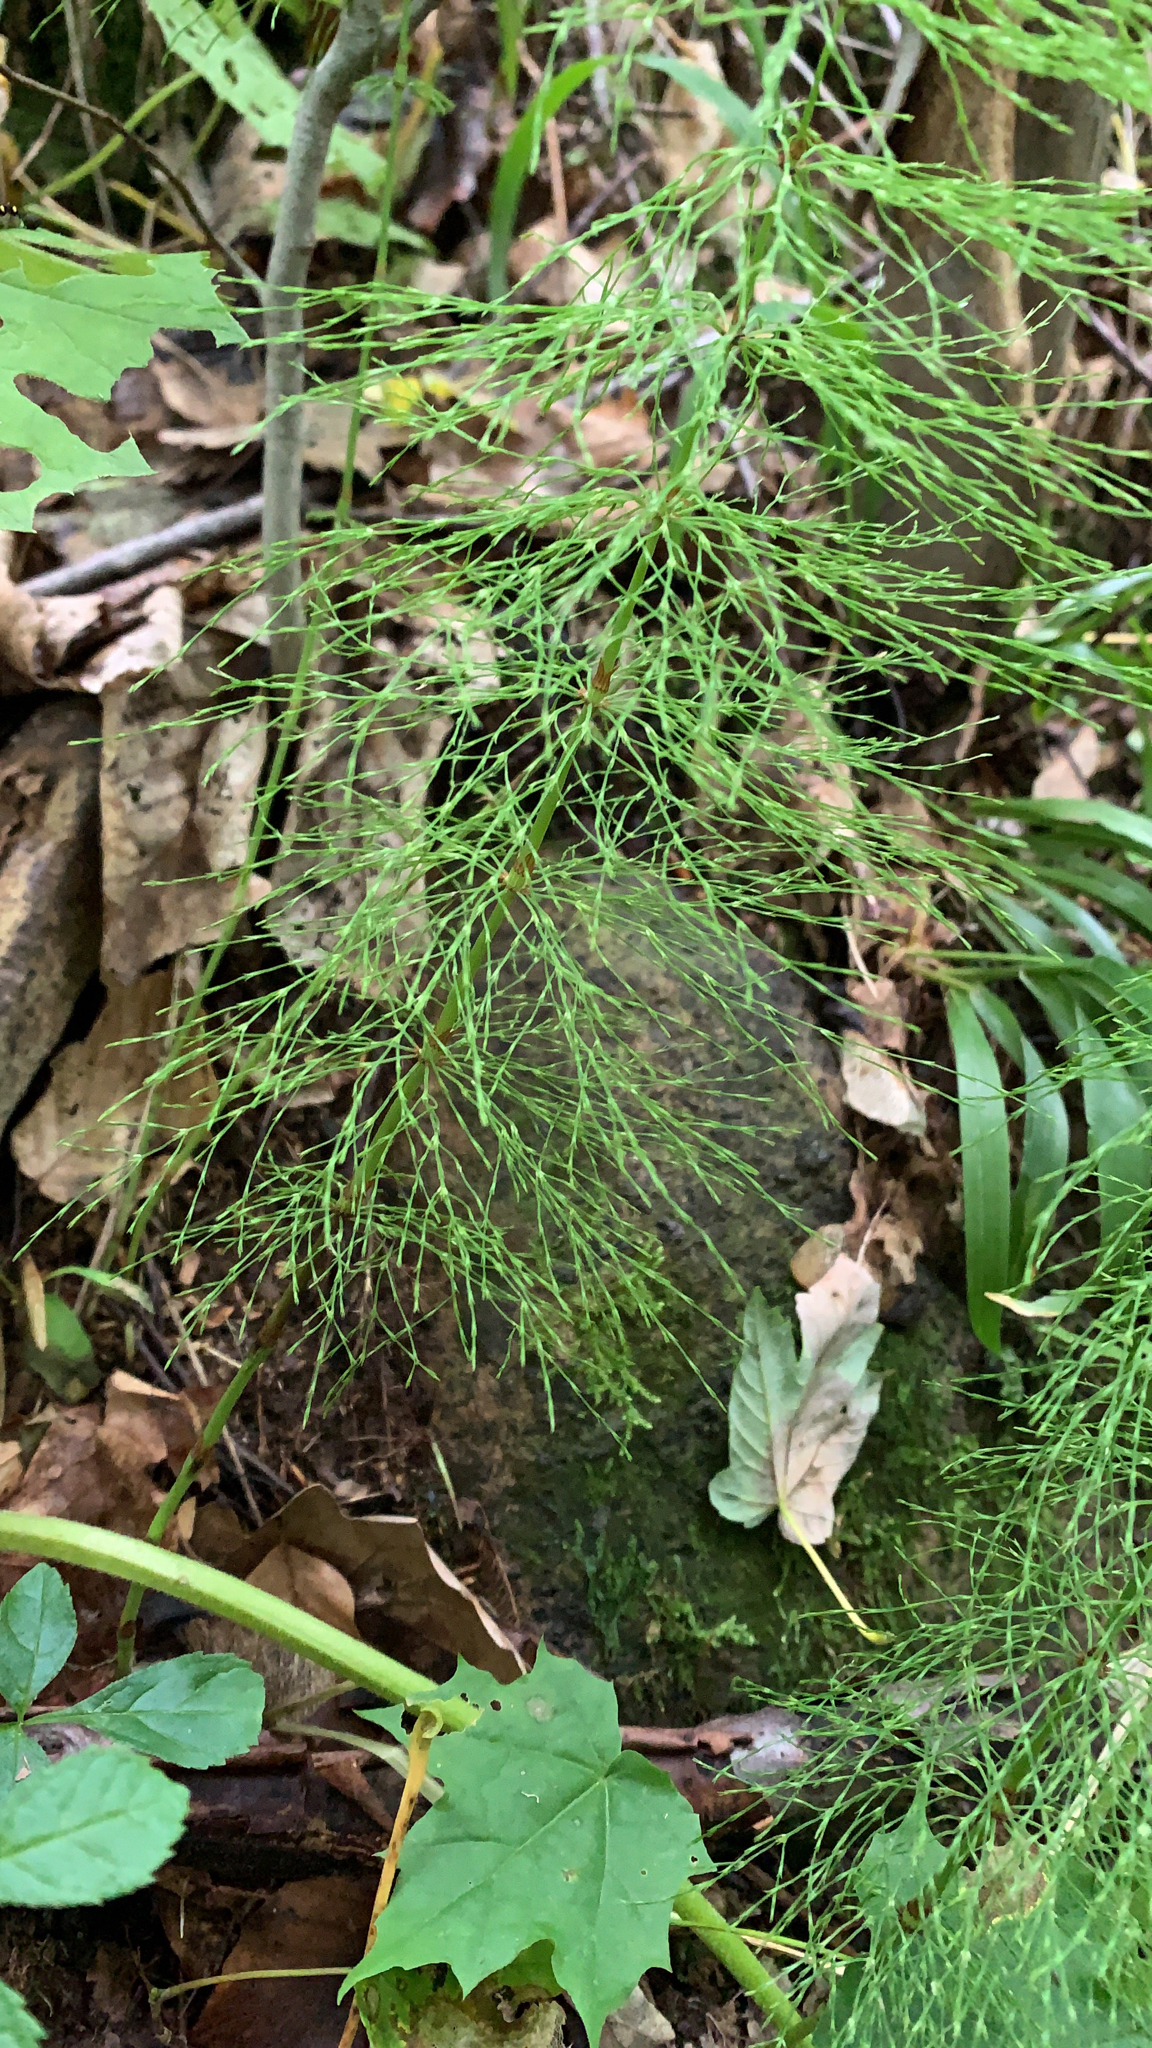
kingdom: Plantae
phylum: Tracheophyta
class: Polypodiopsida
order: Equisetales
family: Equisetaceae
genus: Equisetum
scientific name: Equisetum sylvaticum
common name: Wood horsetail
